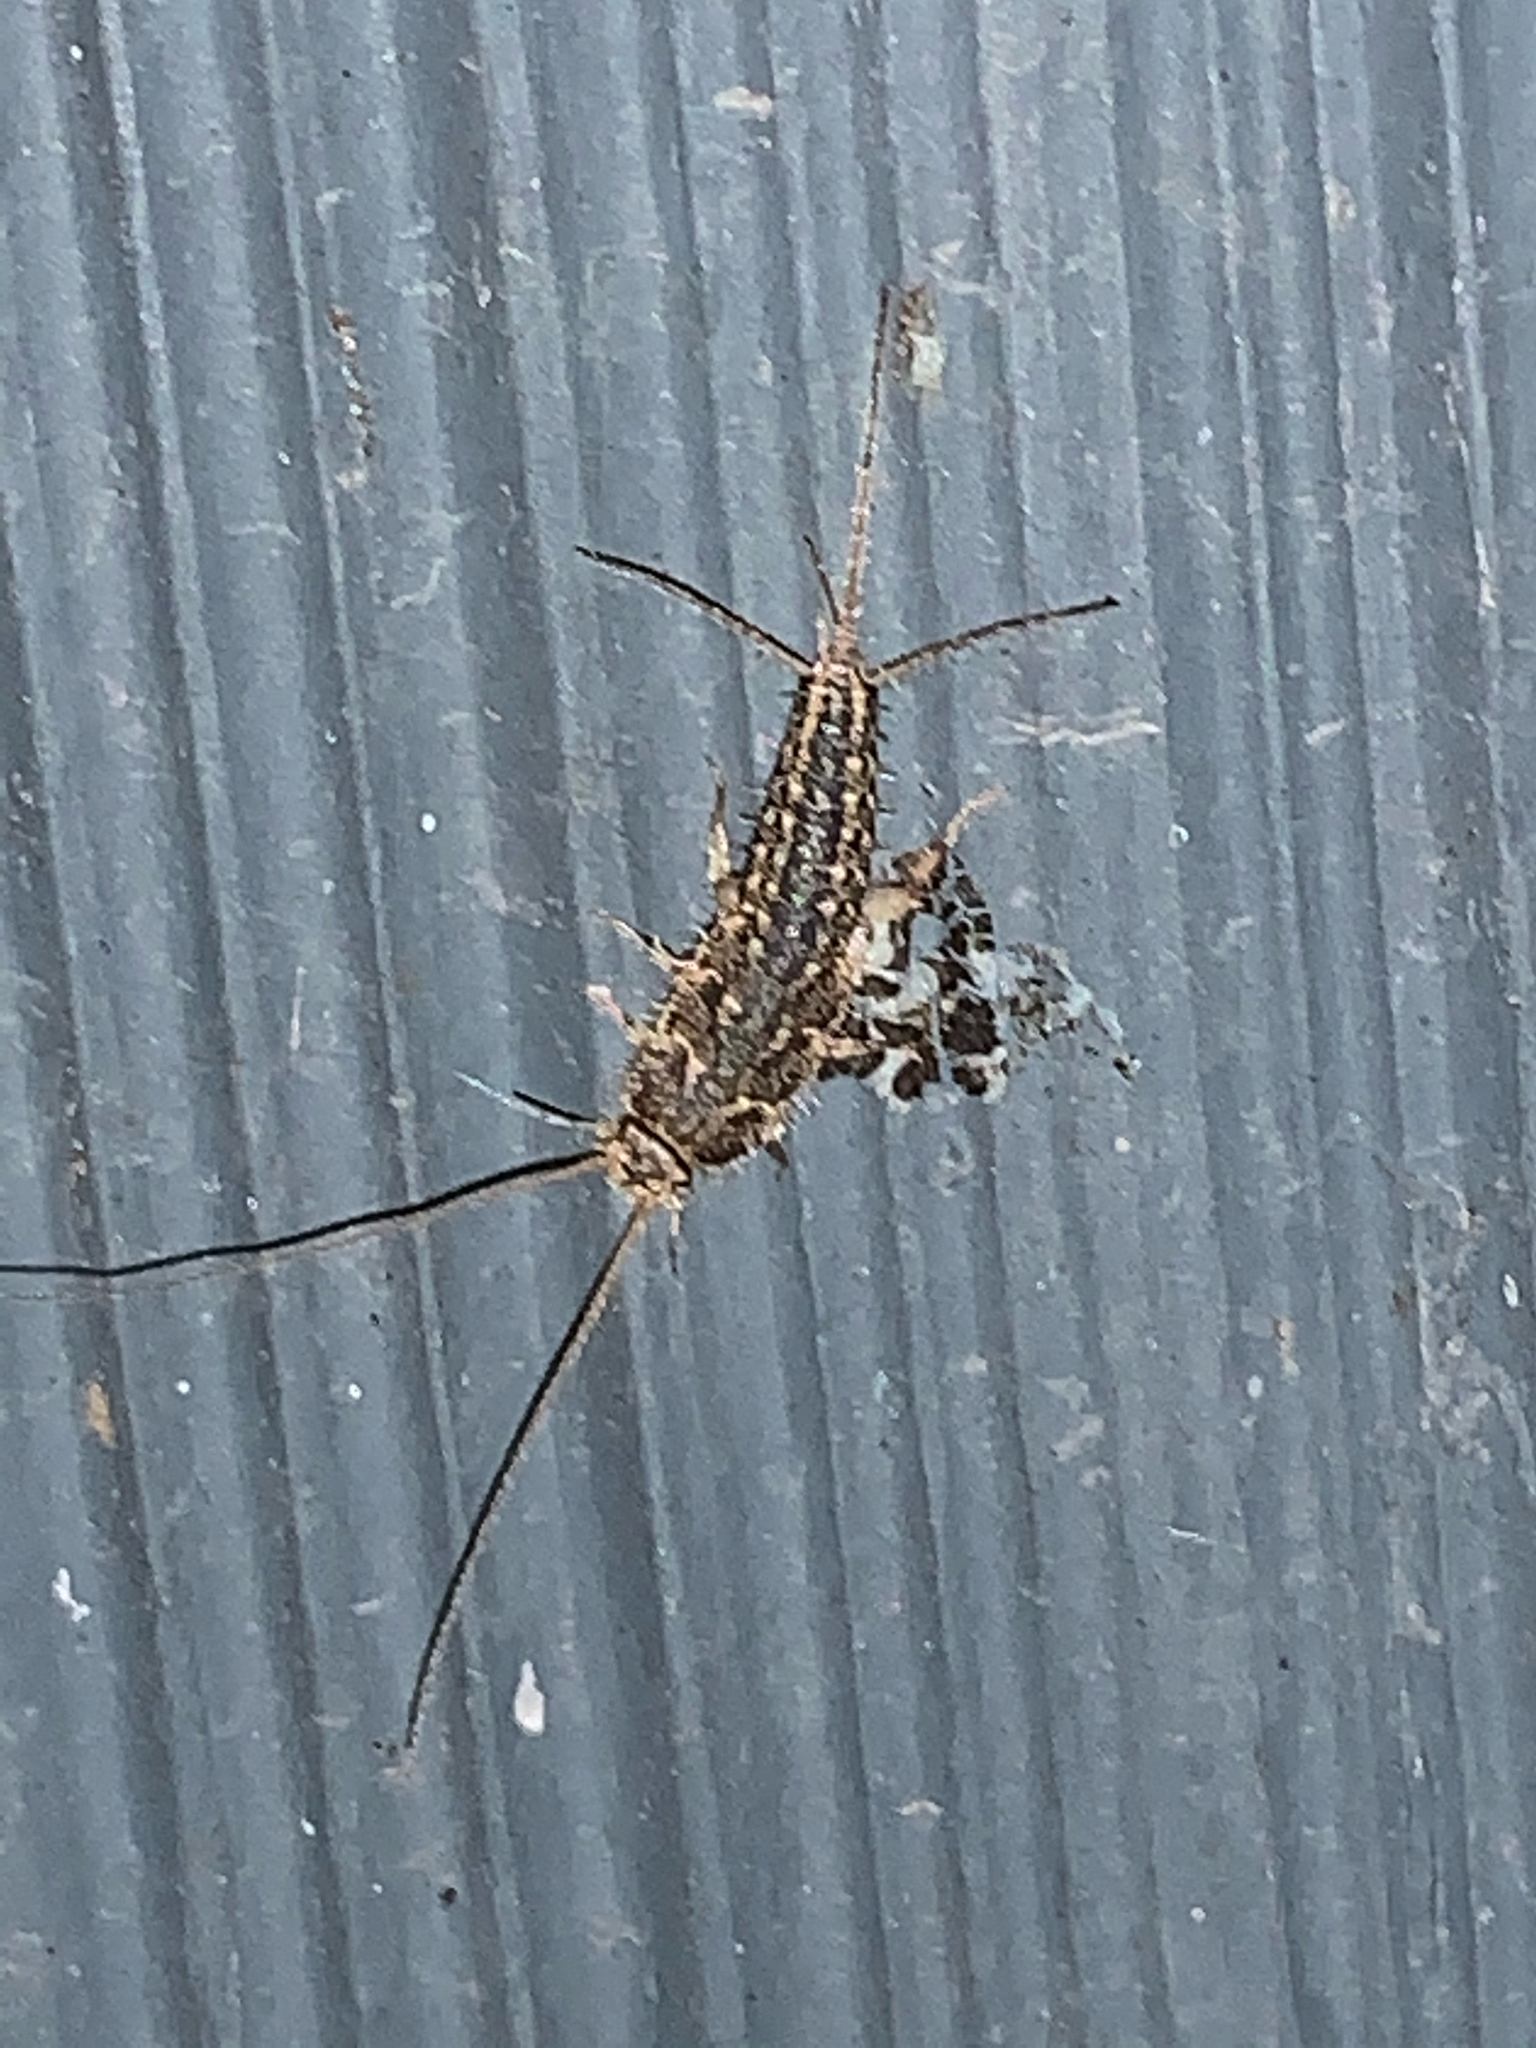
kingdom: Animalia
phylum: Arthropoda
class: Insecta
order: Zygentoma
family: Lepismatidae
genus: Ctenolepisma
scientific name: Ctenolepisma lineata
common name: Four-lined silverfish
